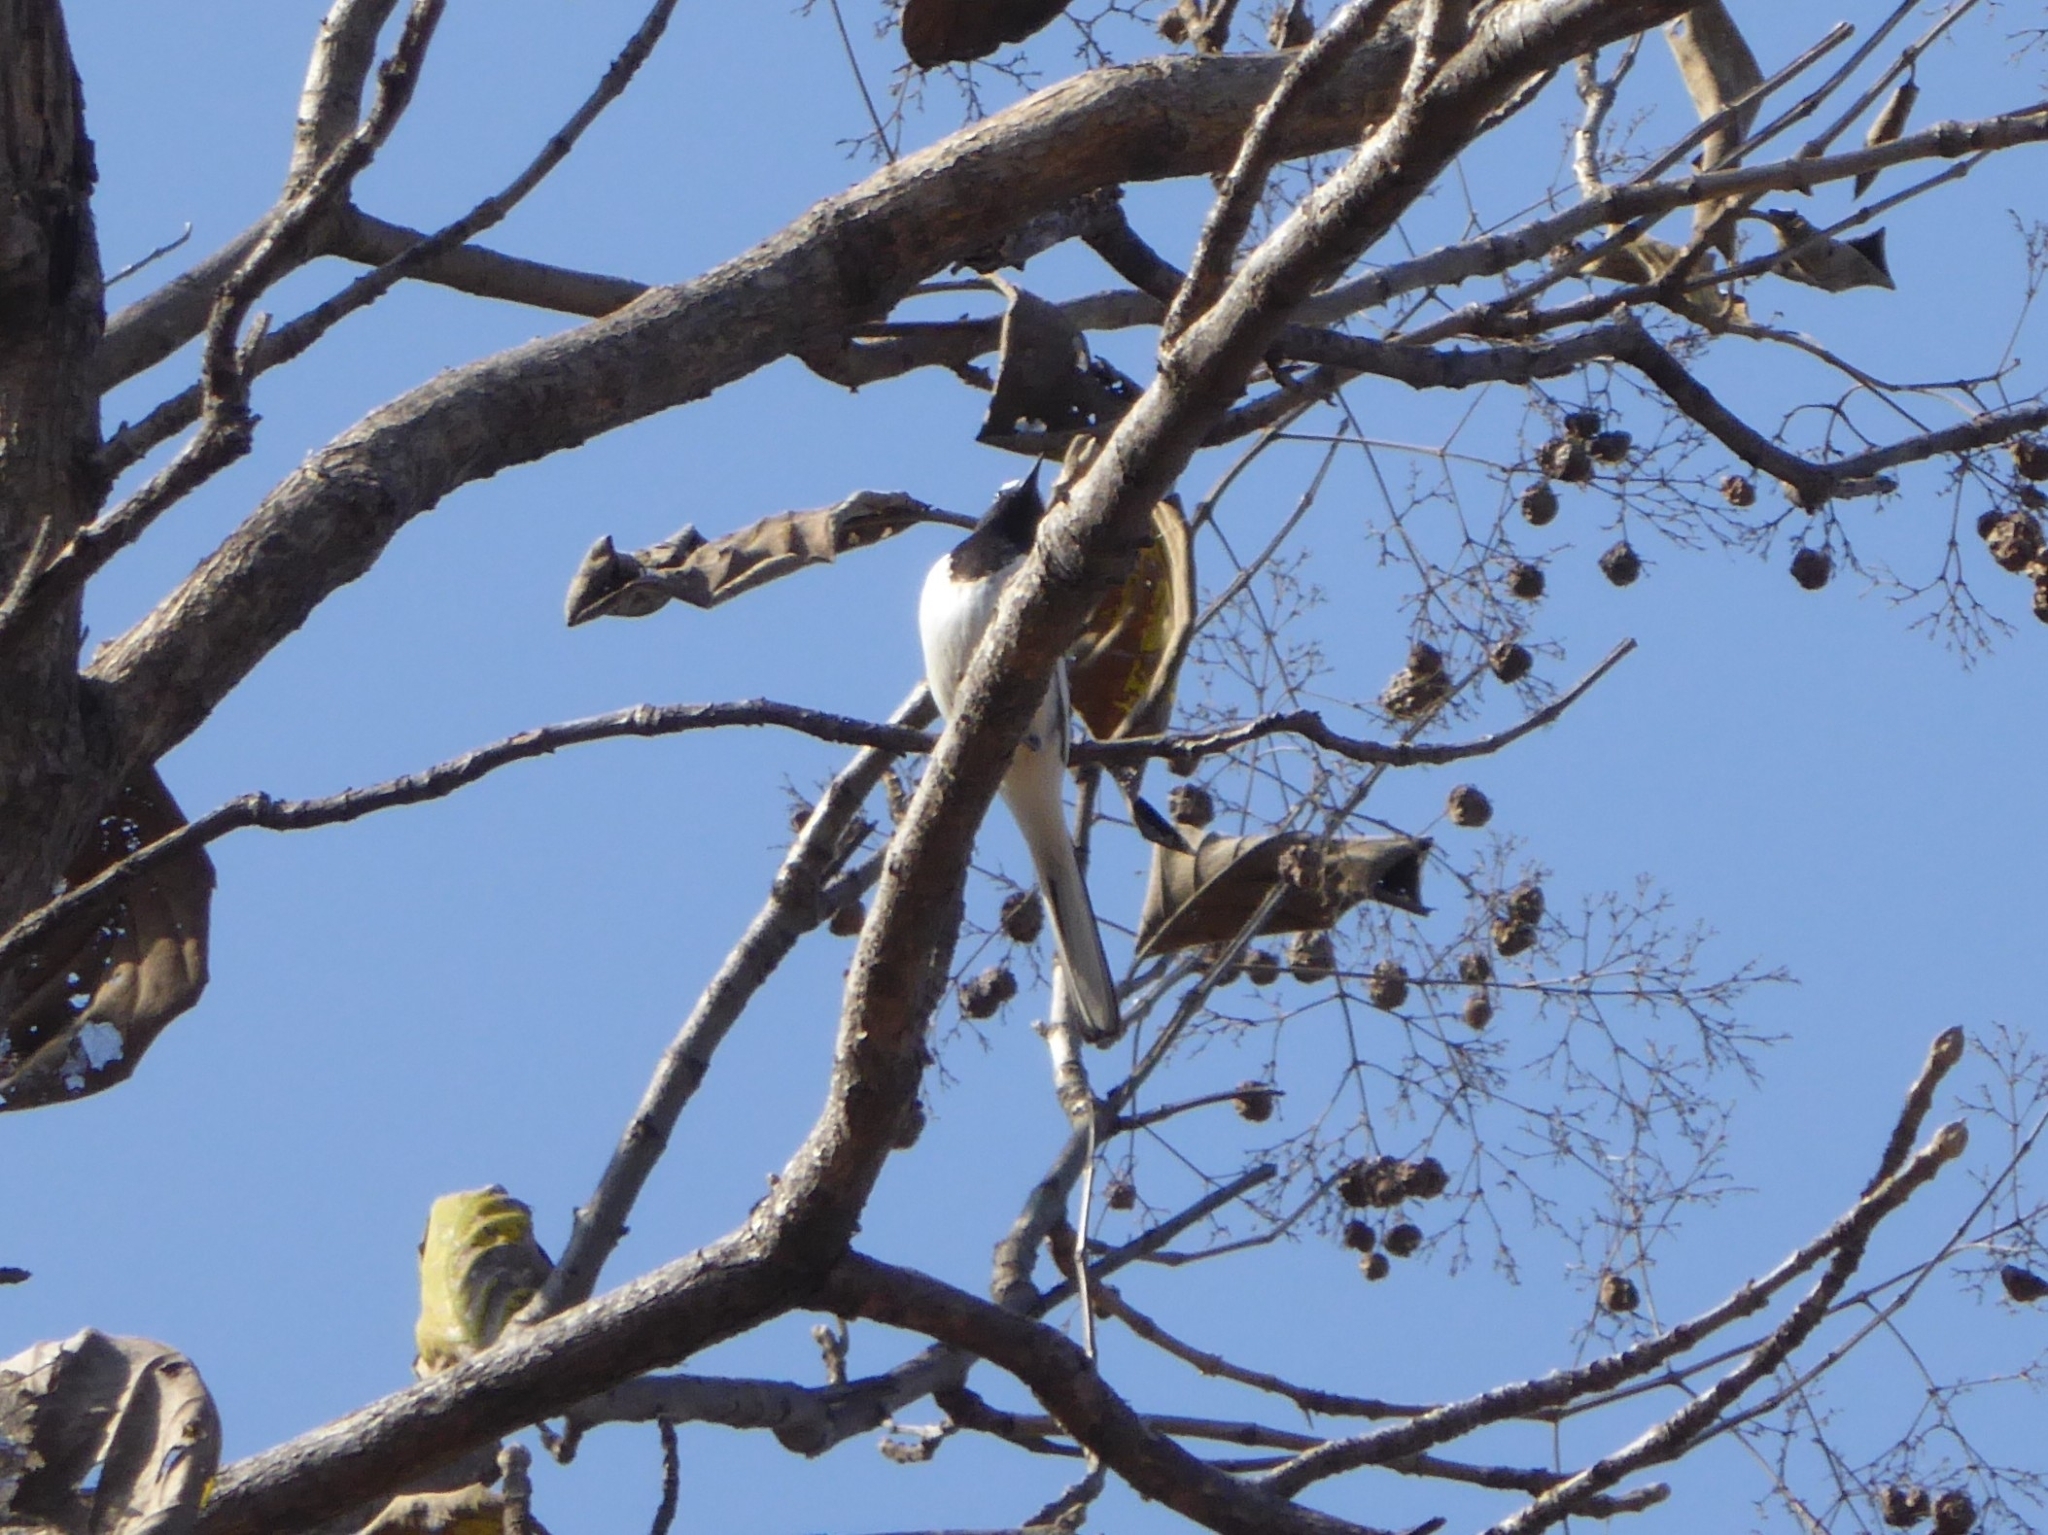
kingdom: Animalia
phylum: Chordata
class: Aves
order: Passeriformes
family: Motacillidae
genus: Motacilla
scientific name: Motacilla maderaspatensis
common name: White-browed wagtail
